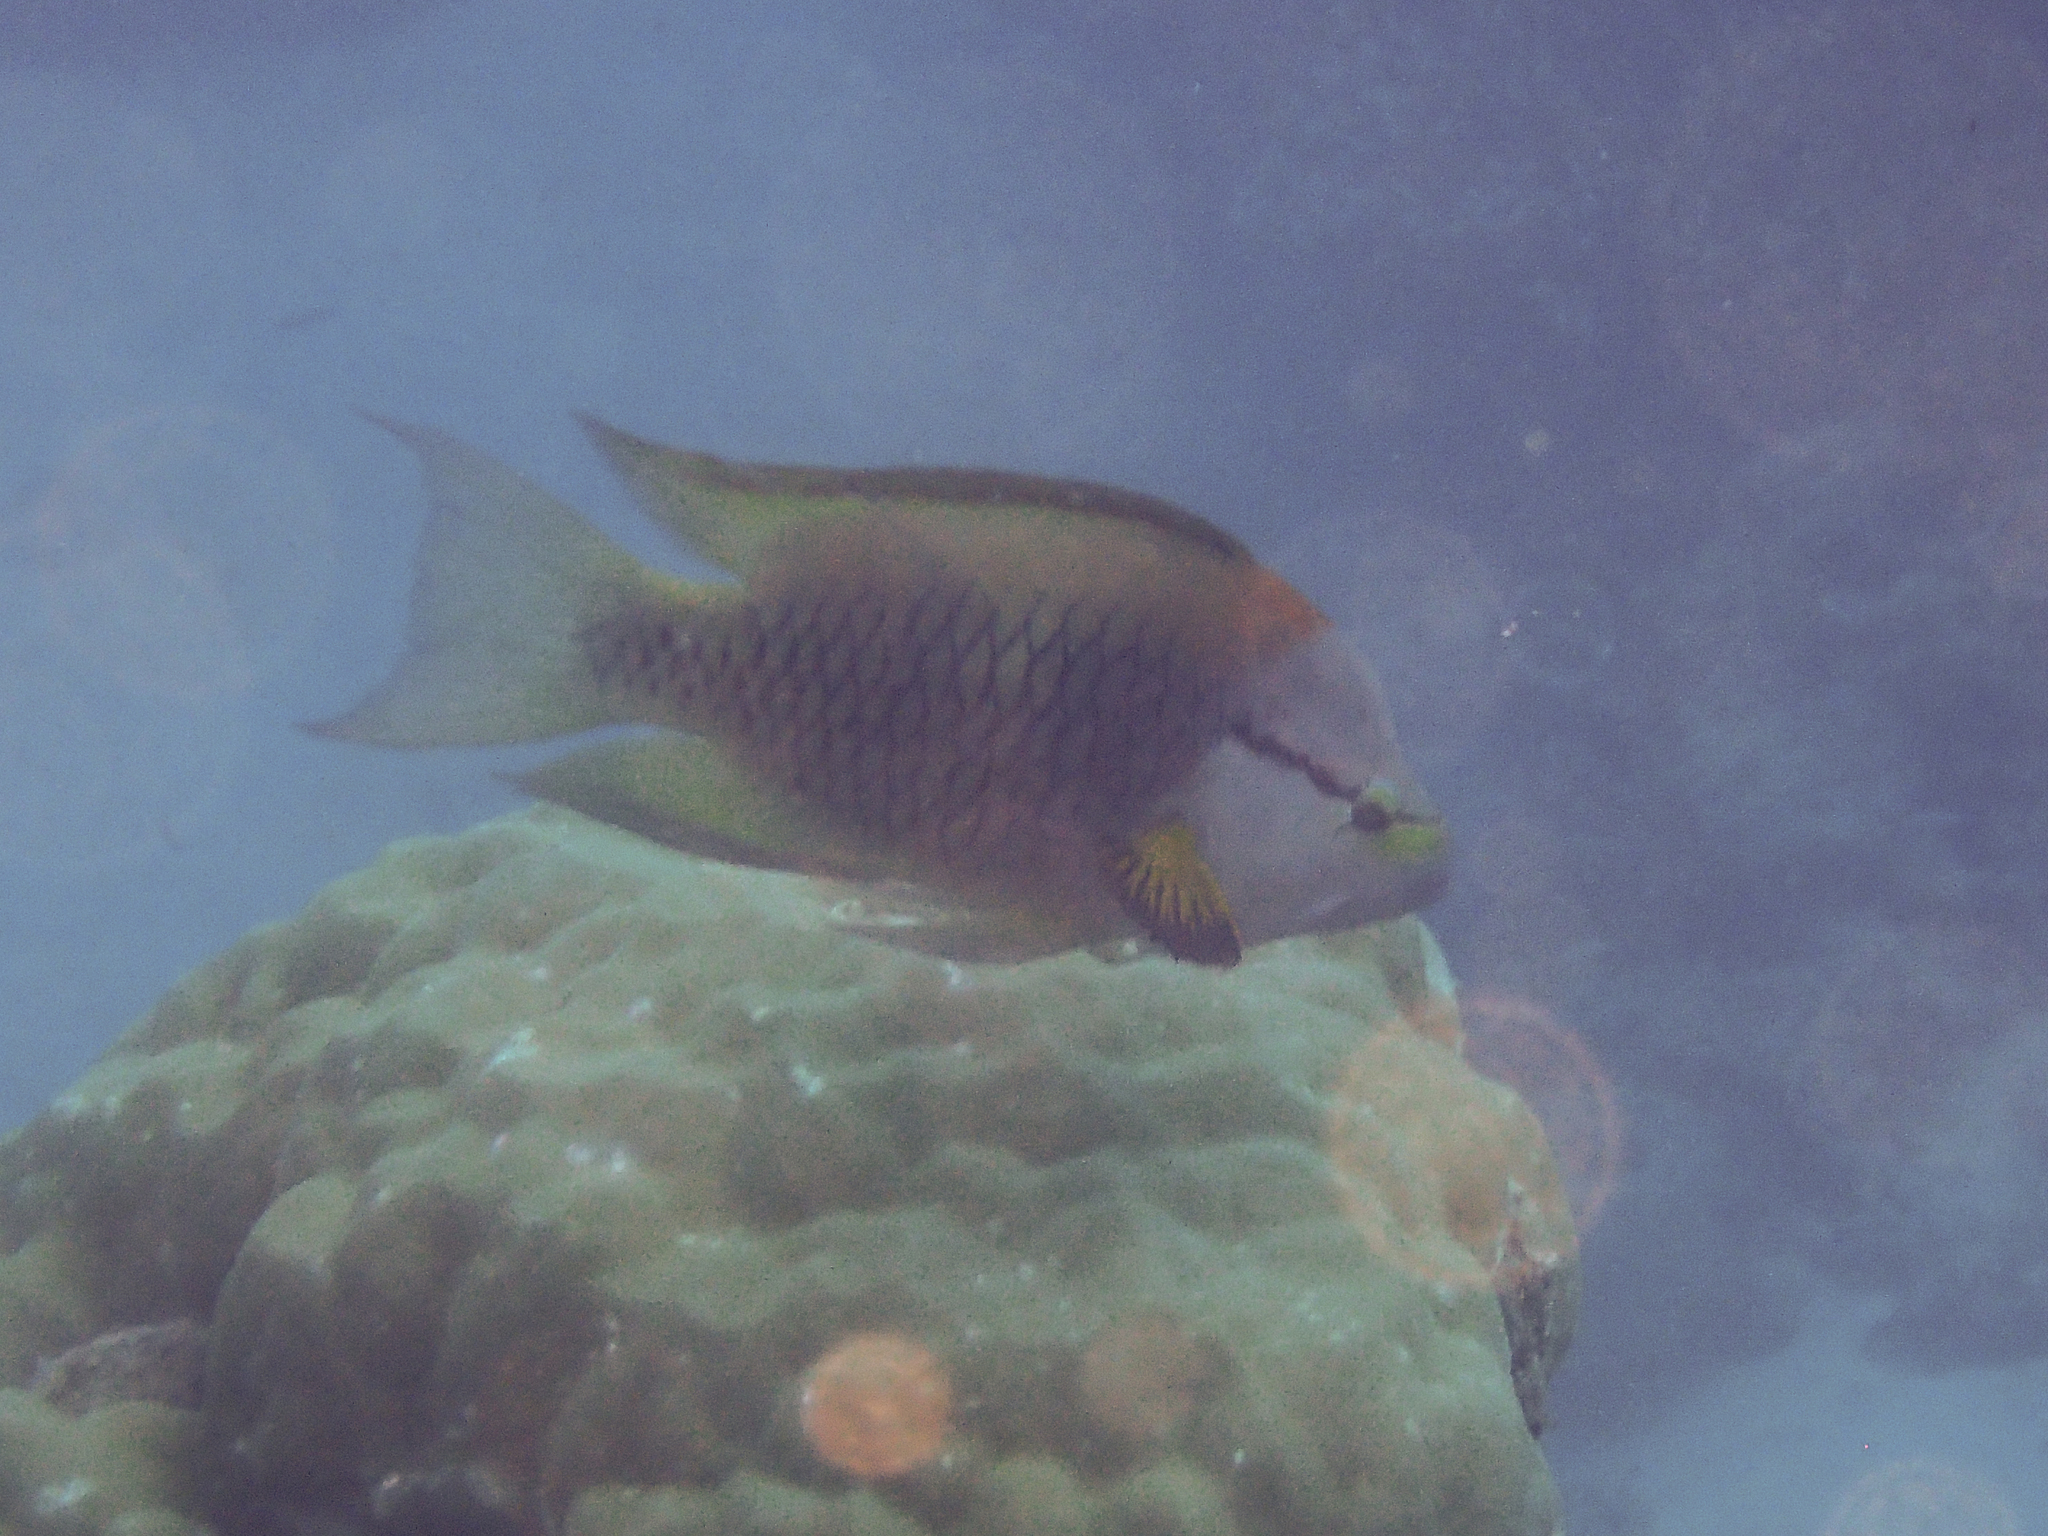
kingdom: Animalia
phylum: Chordata
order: Perciformes
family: Labridae
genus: Epibulus
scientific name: Epibulus insidiator
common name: Slingjaw wrasse
